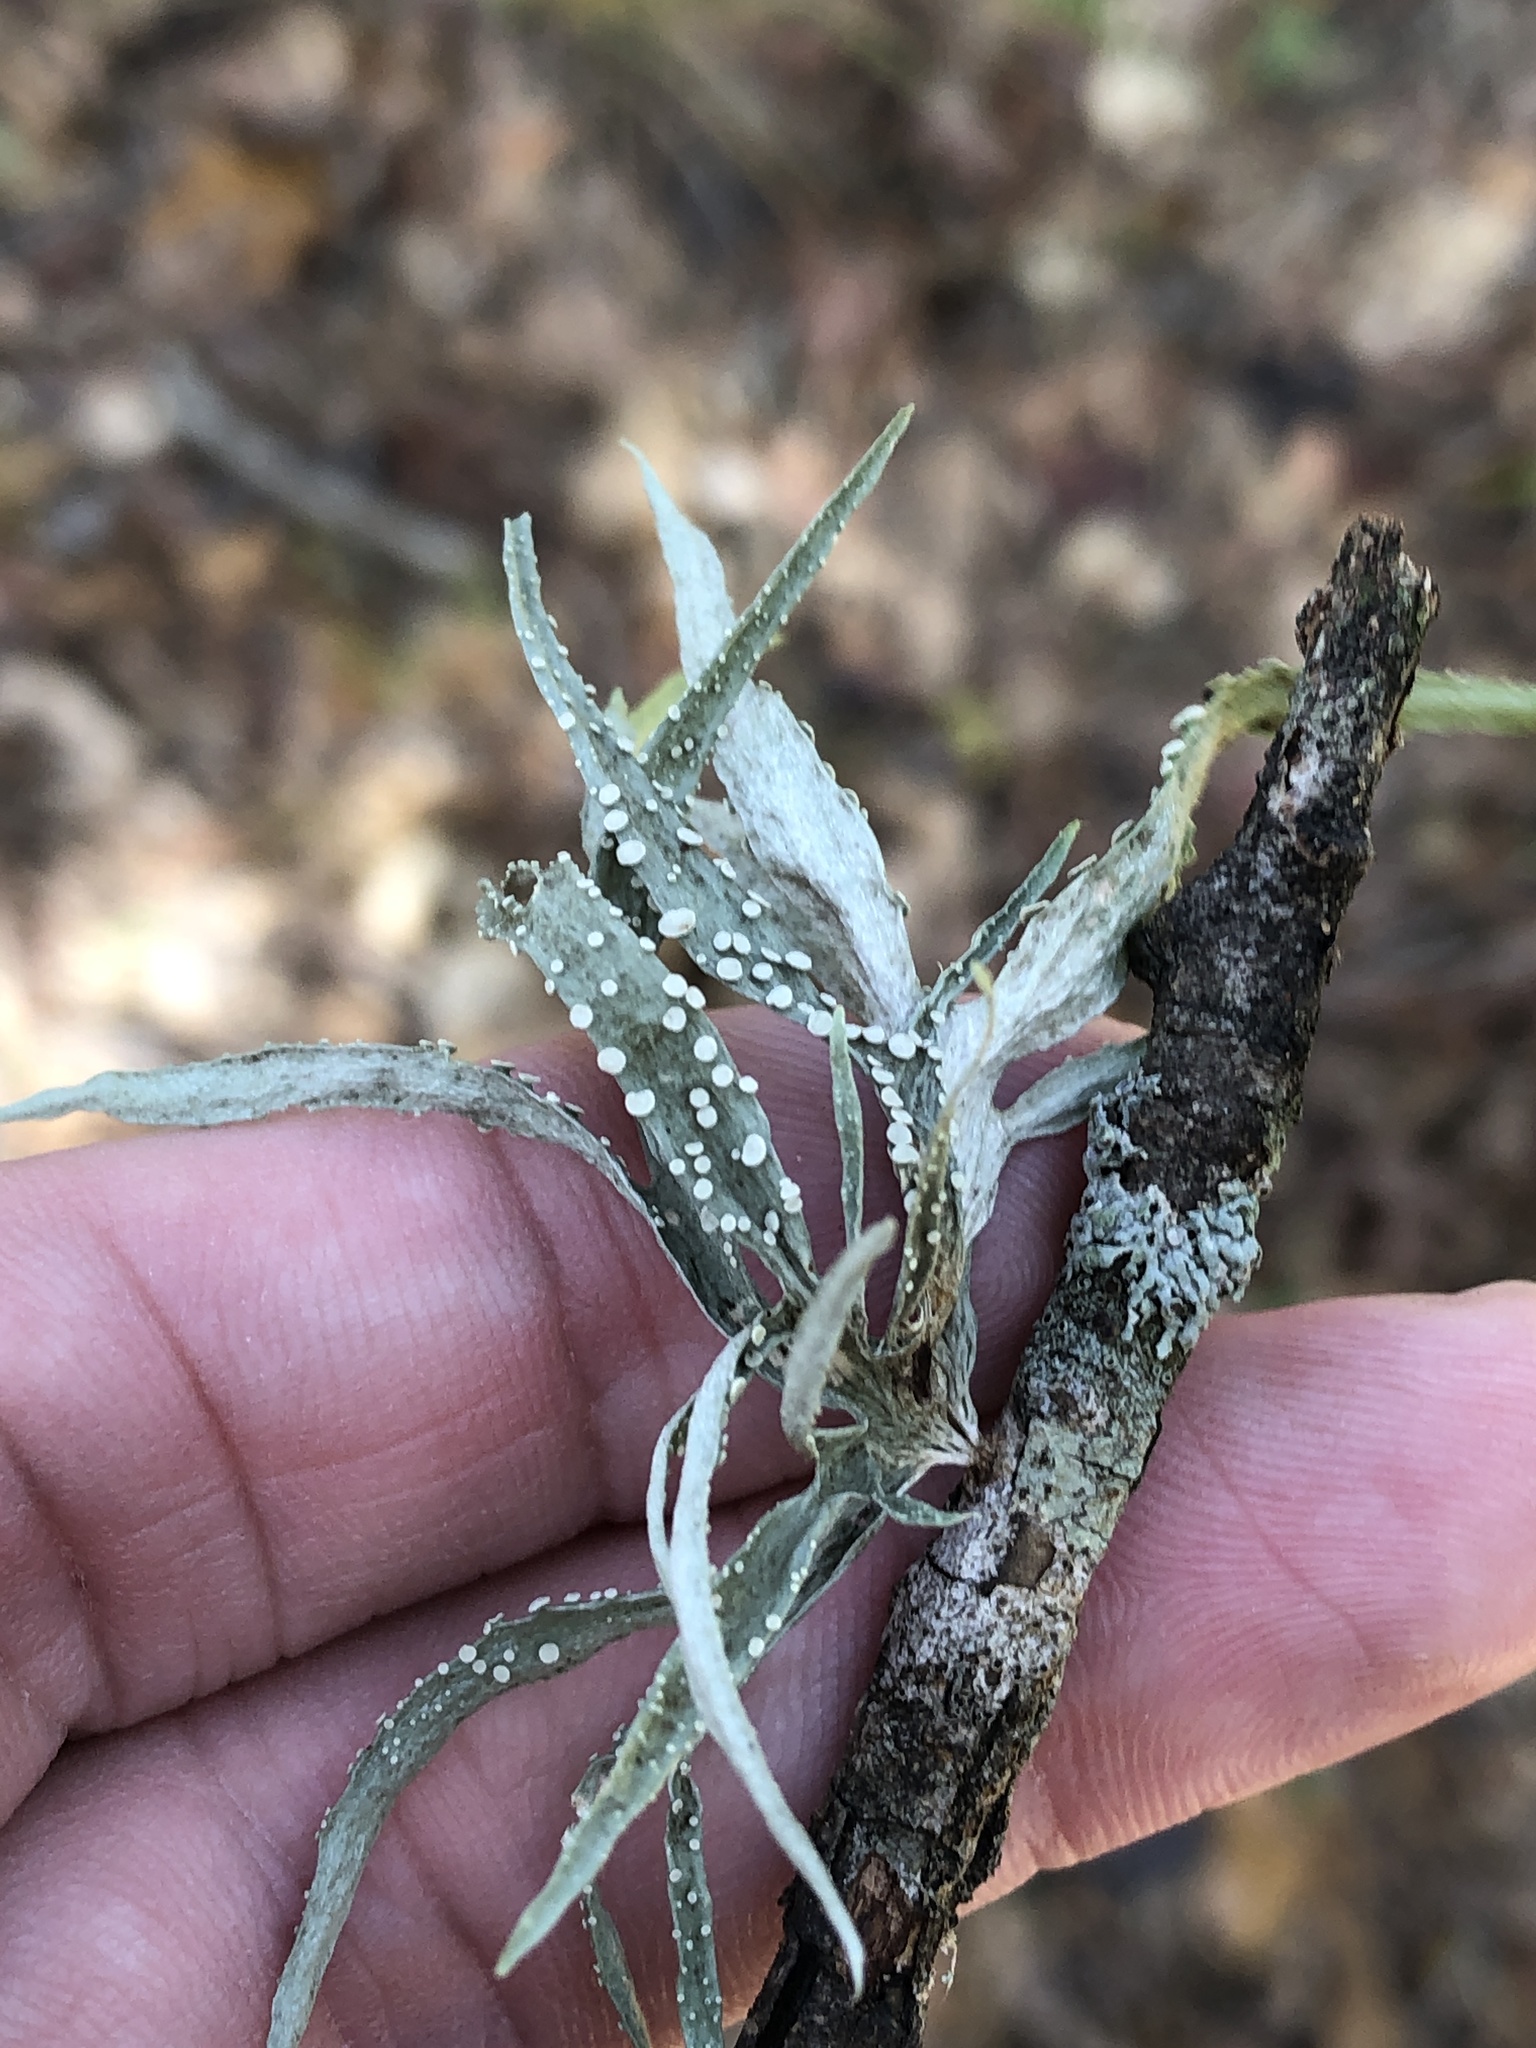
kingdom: Fungi
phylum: Ascomycota
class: Lecanoromycetes
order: Lecanorales
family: Ramalinaceae
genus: Ramalina
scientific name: Ramalina celastri
